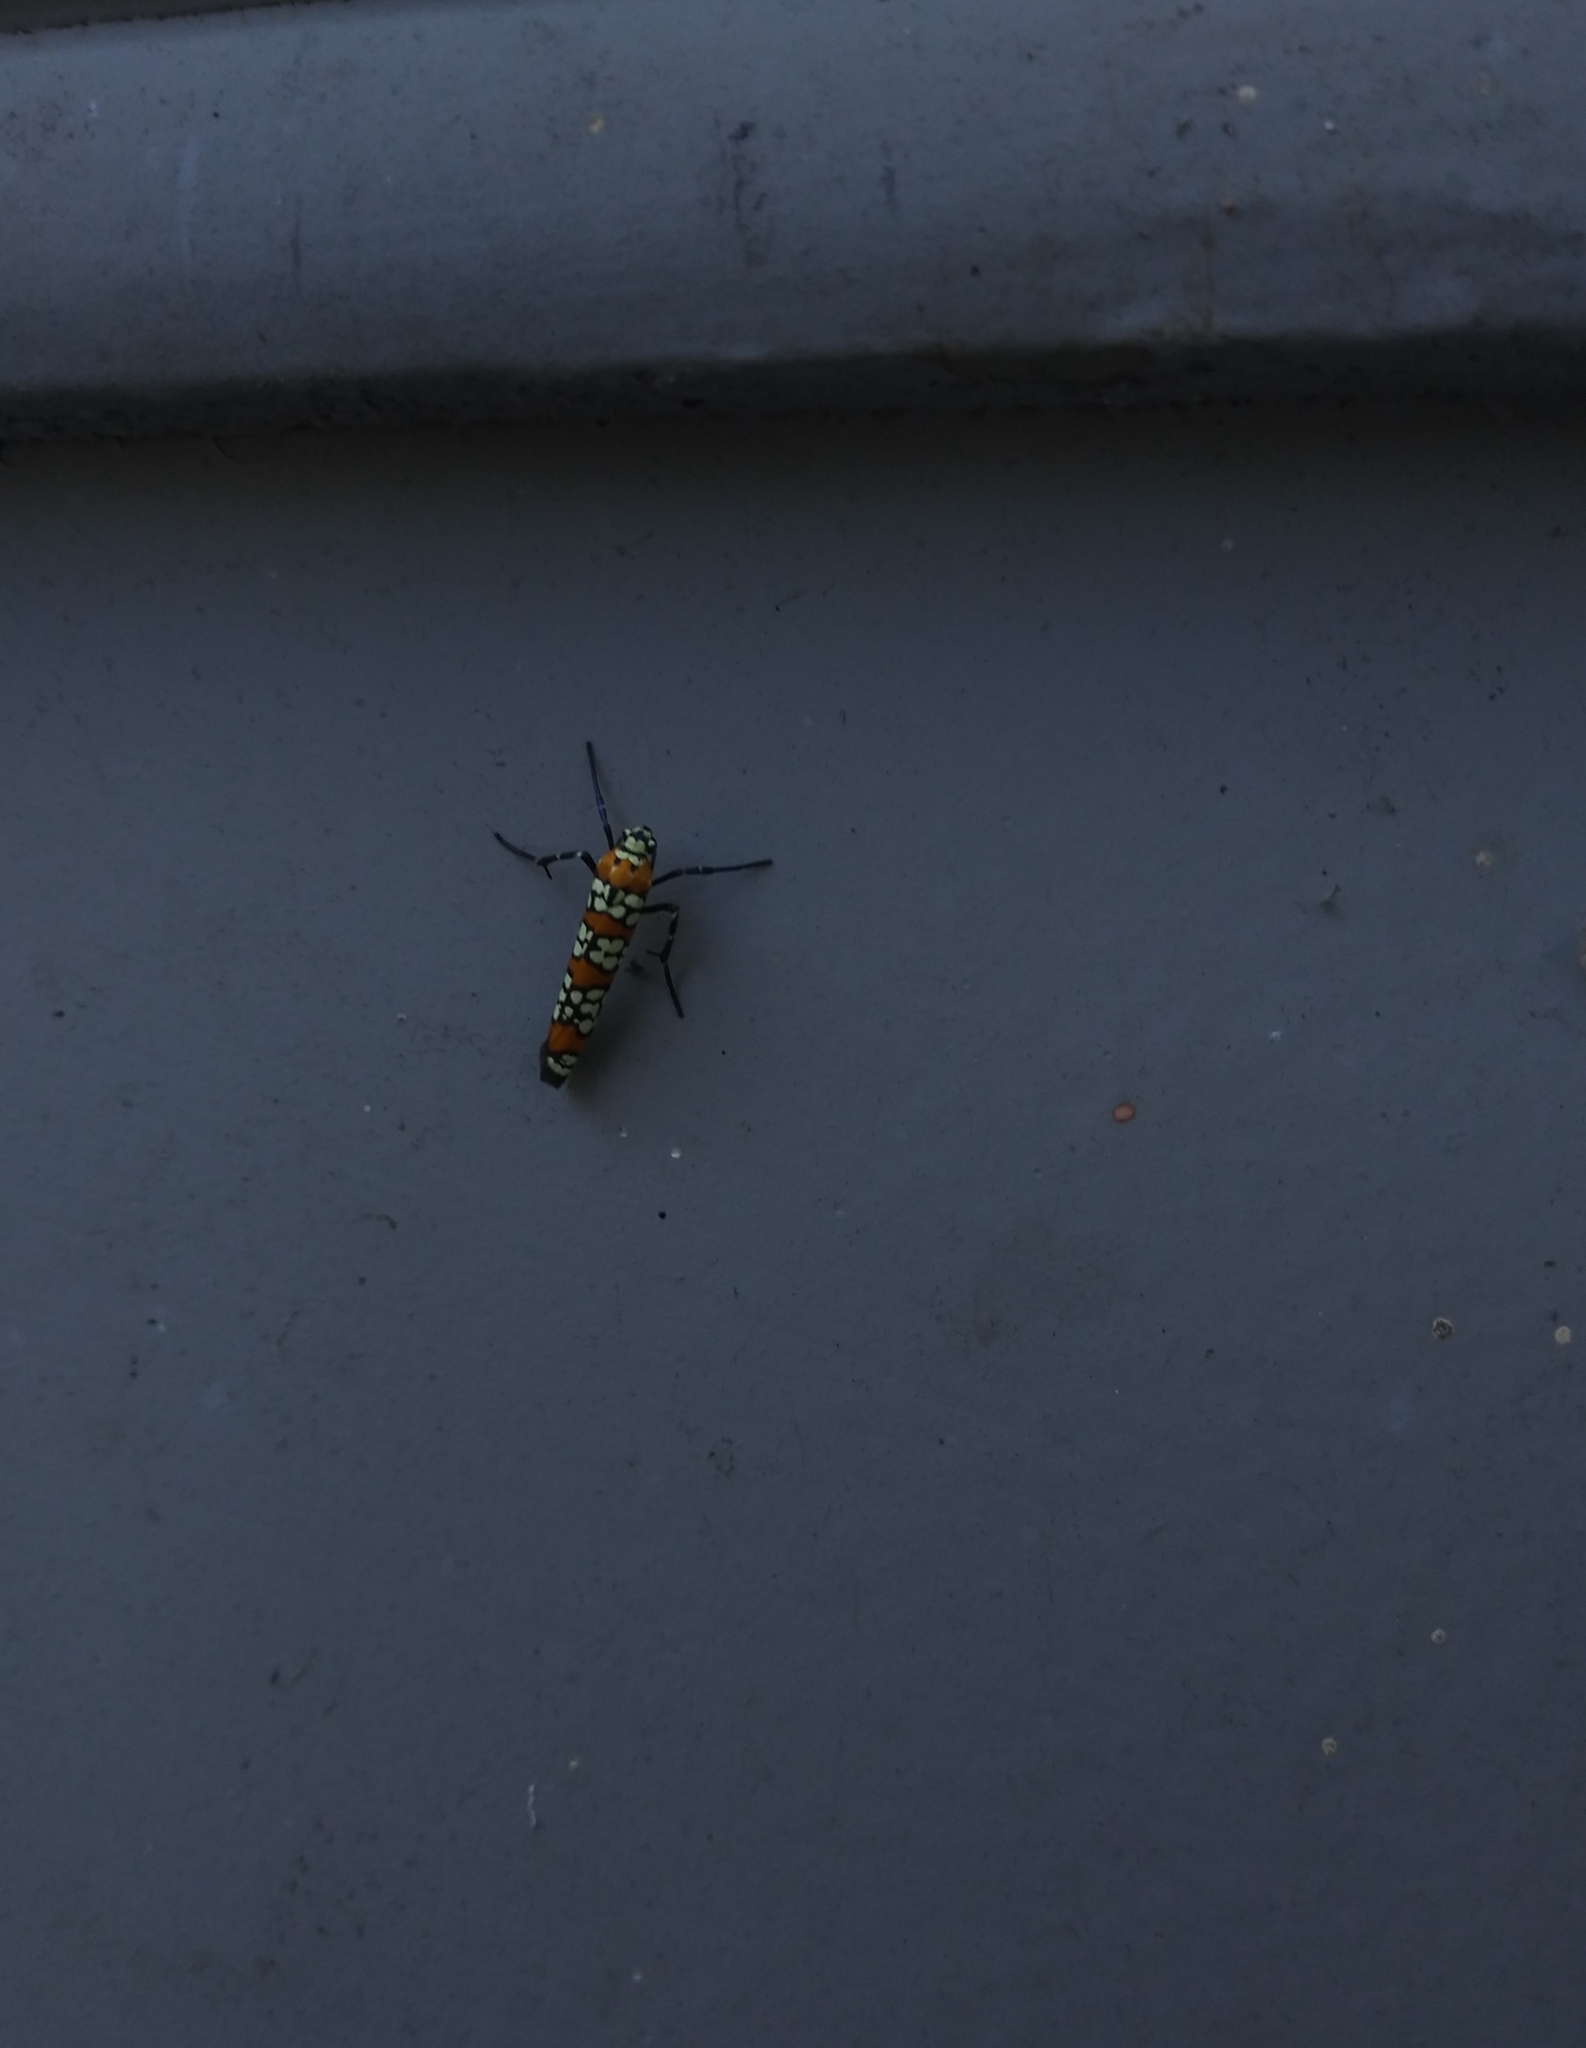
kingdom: Animalia
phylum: Arthropoda
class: Insecta
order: Lepidoptera
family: Attevidae
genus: Atteva
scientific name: Atteva punctella
